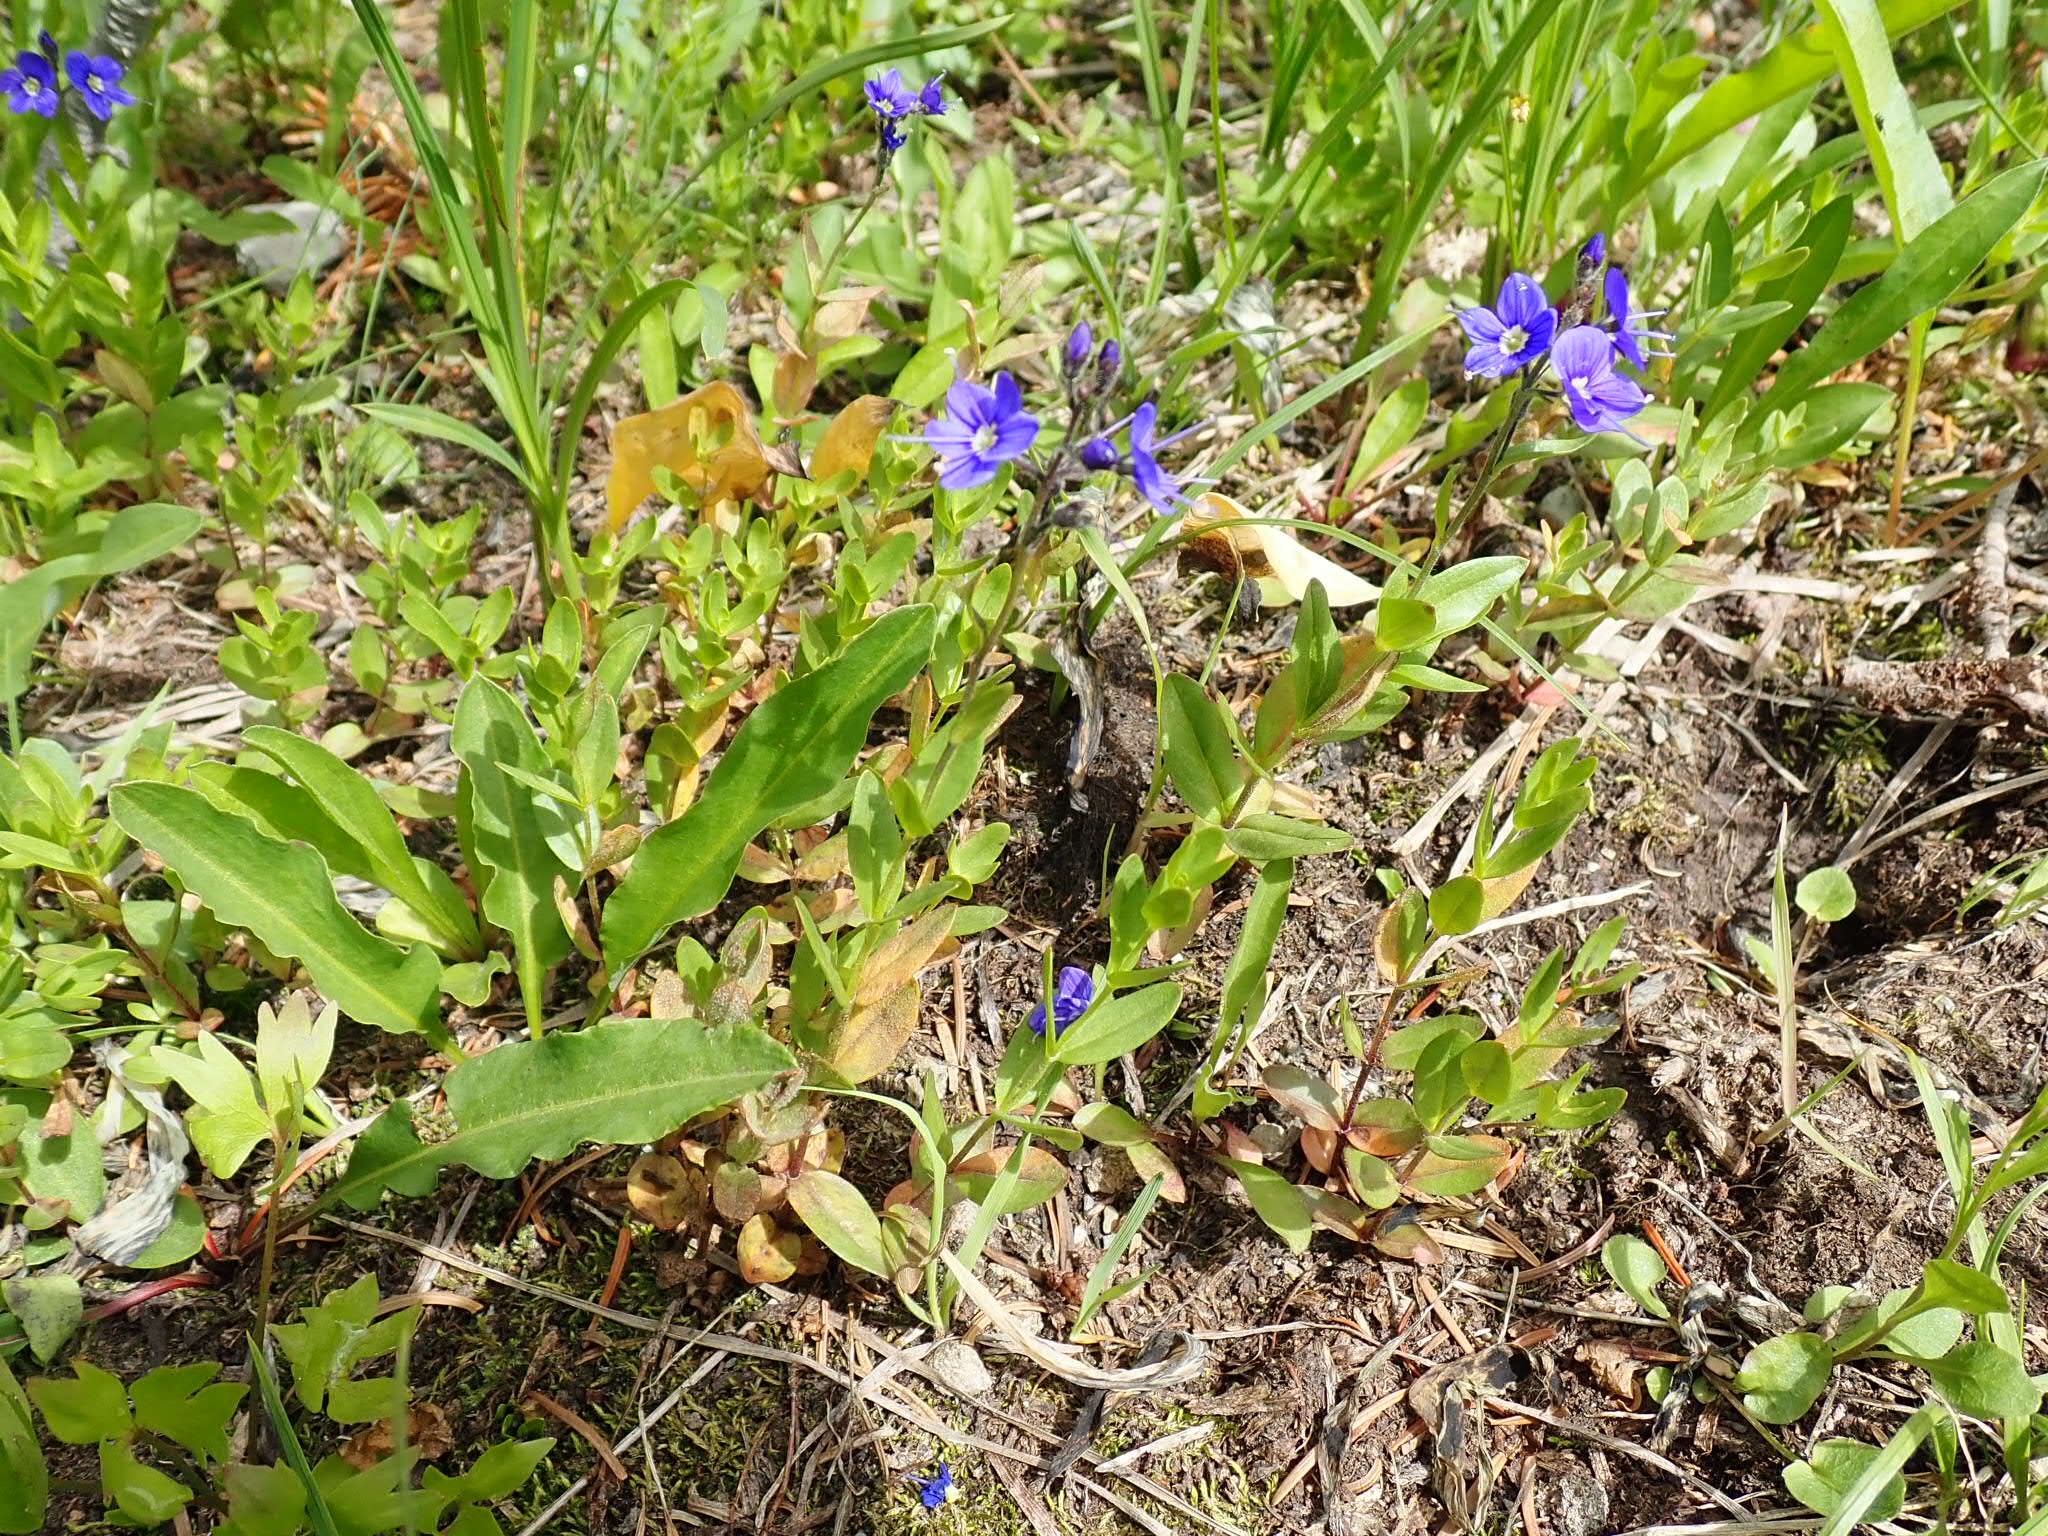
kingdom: Plantae
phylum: Tracheophyta
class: Magnoliopsida
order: Lamiales
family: Plantaginaceae
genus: Veronica
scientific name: Veronica cusickii
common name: Cusick's speedwell
